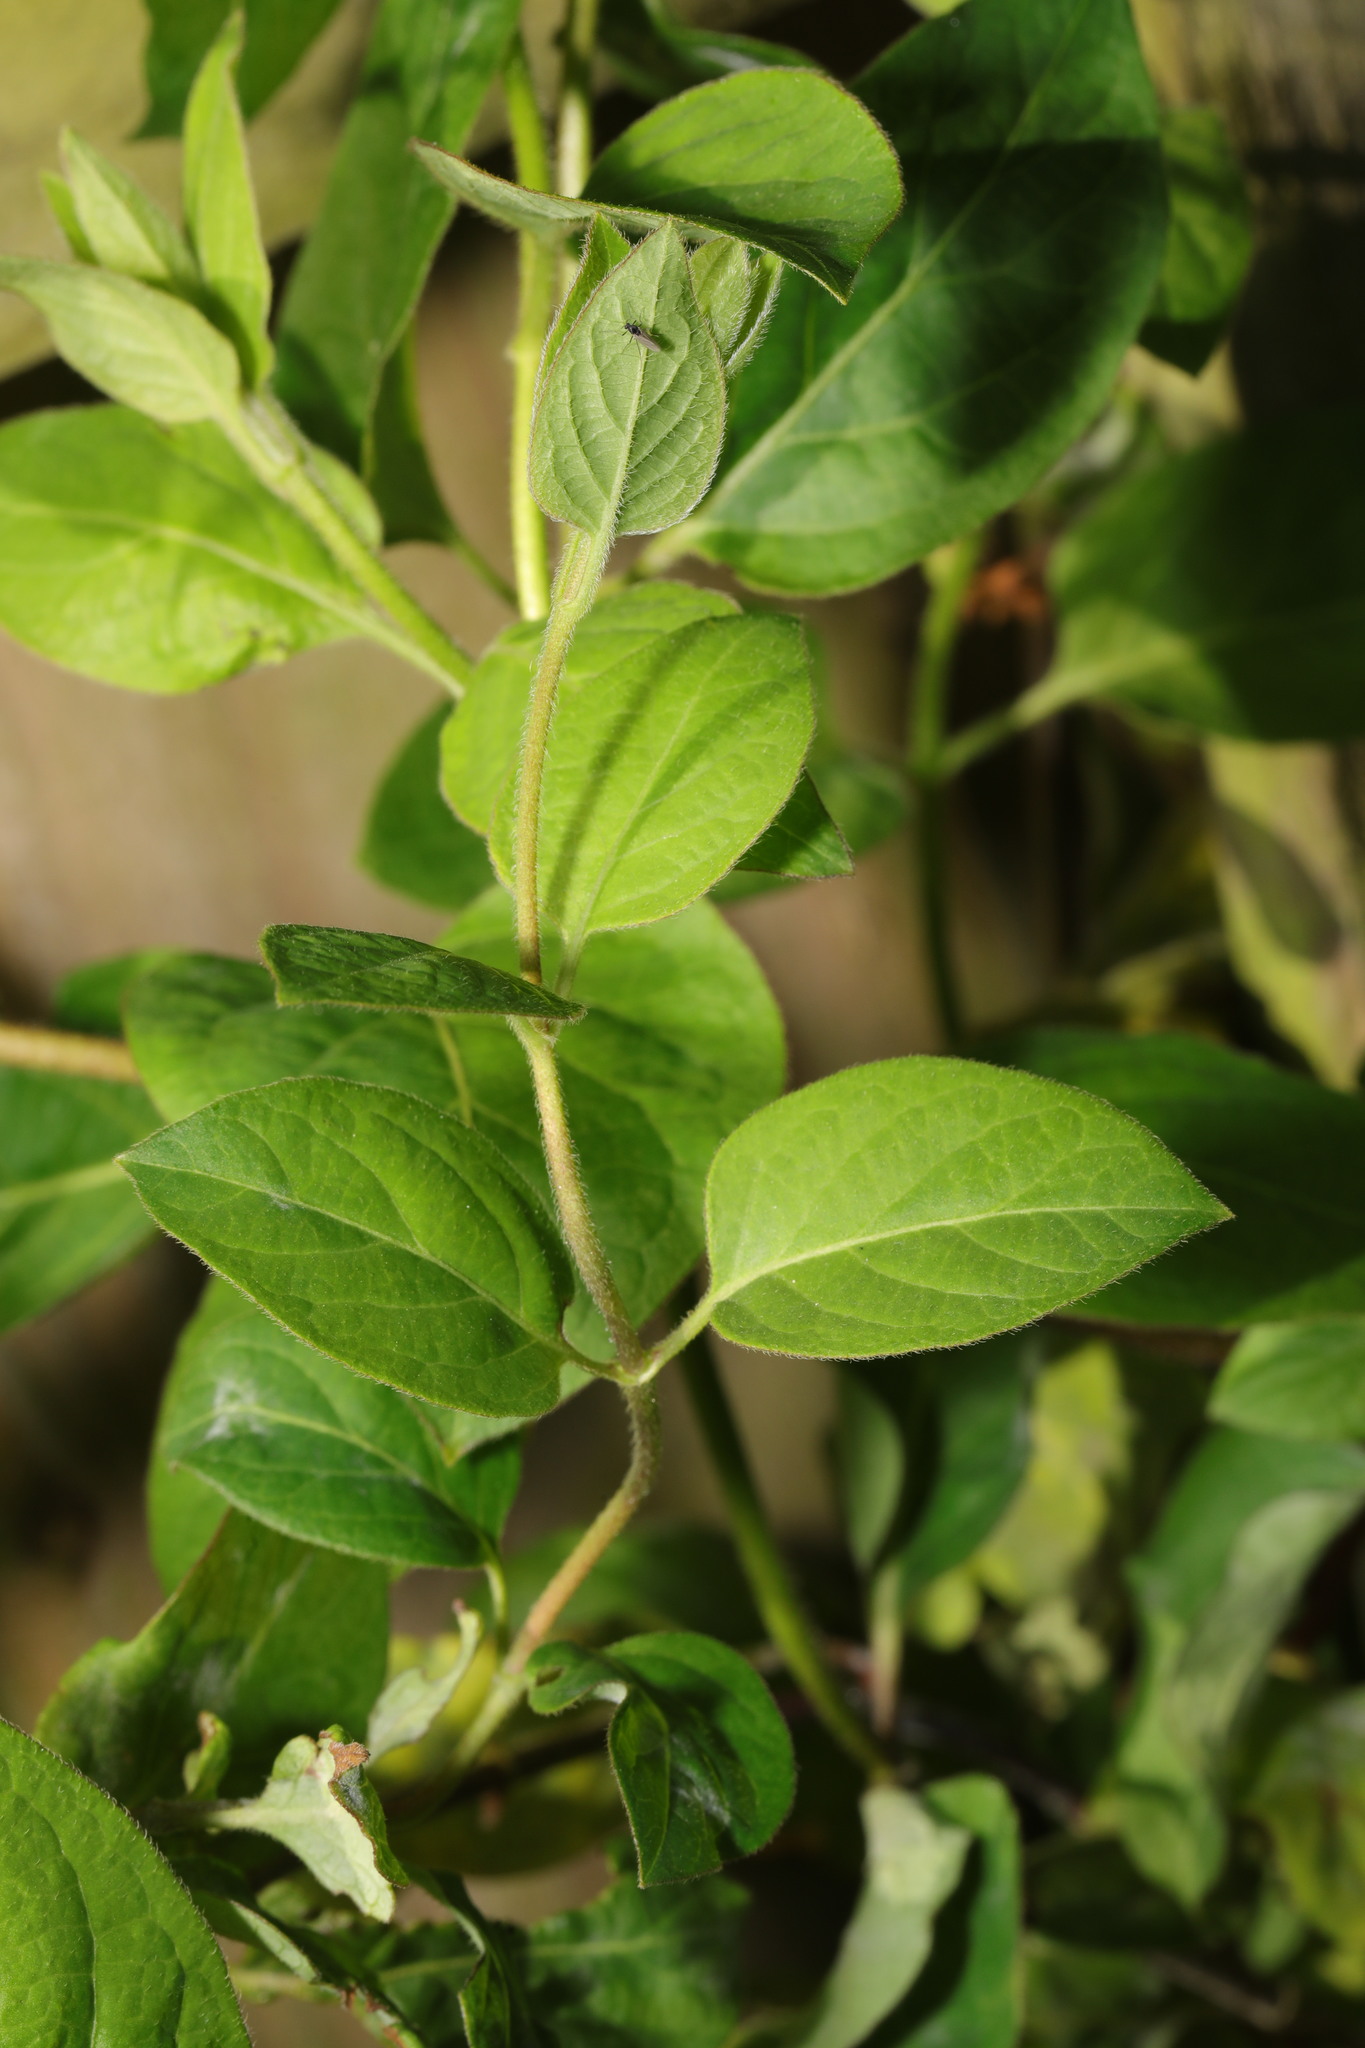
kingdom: Plantae
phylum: Tracheophyta
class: Magnoliopsida
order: Dipsacales
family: Caprifoliaceae
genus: Lonicera
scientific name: Lonicera japonica
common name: Japanese honeysuckle
